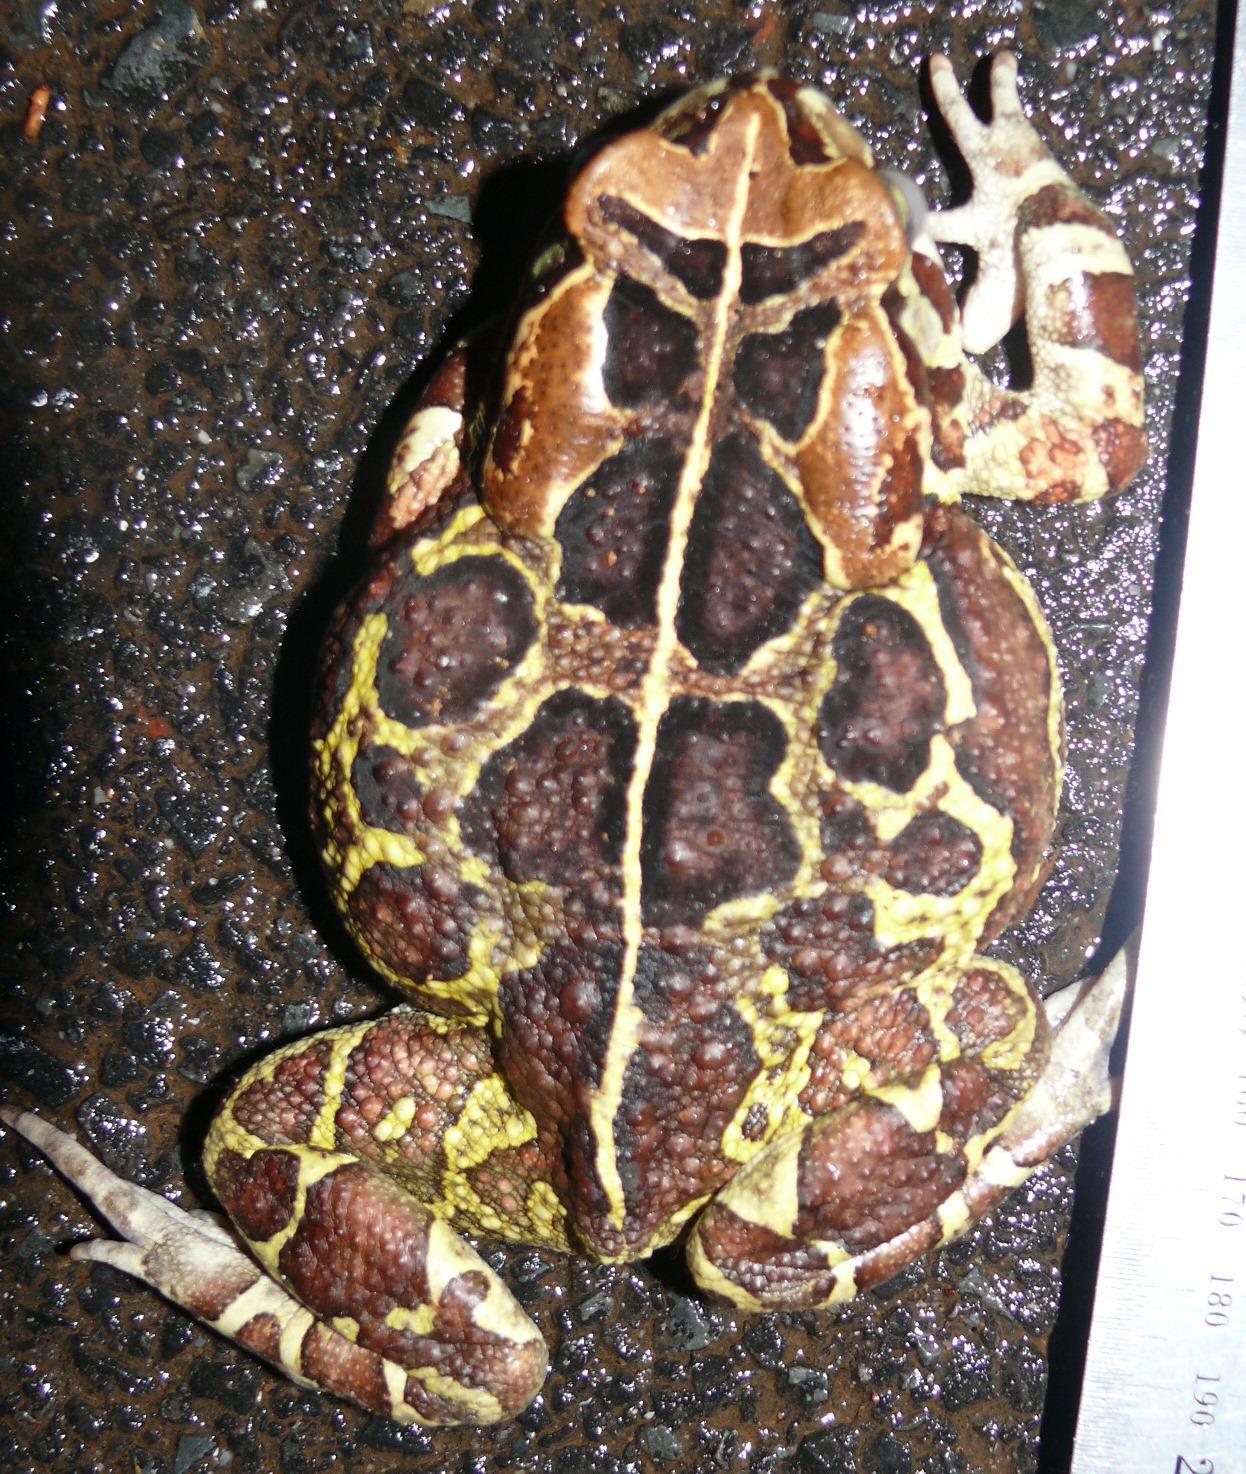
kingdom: Animalia
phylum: Chordata
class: Amphibia
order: Anura
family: Bufonidae
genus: Sclerophrys
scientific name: Sclerophrys pantherina
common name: Panther toad
